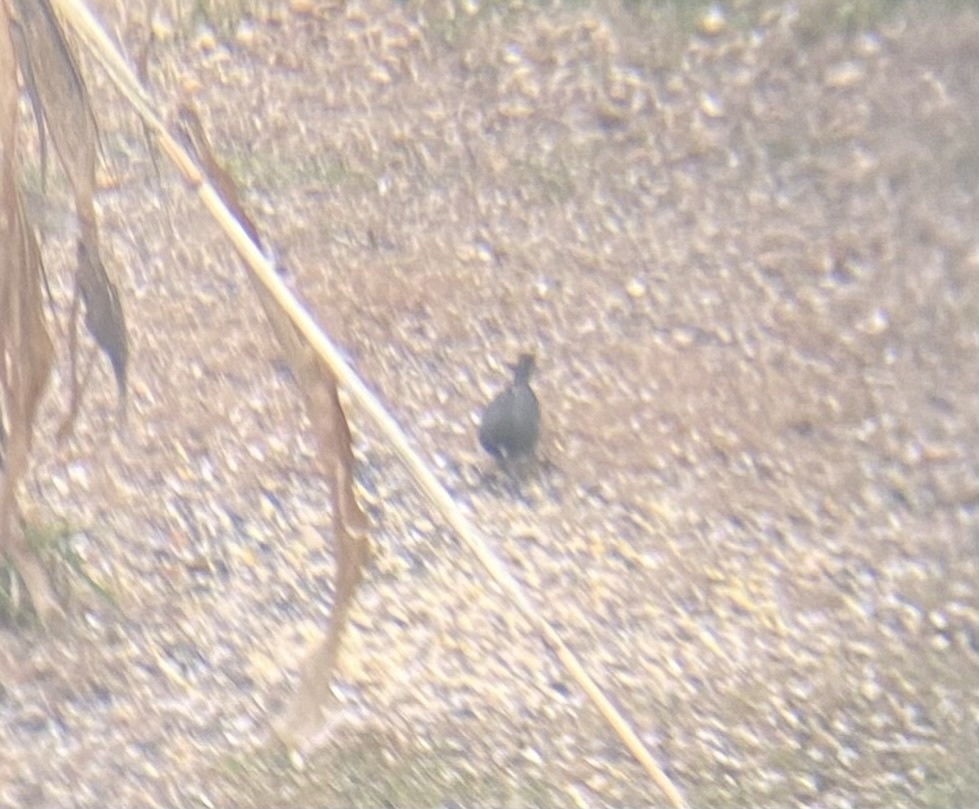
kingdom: Animalia
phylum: Chordata
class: Aves
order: Passeriformes
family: Passerellidae
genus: Junco
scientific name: Junco hyemalis
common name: Dark-eyed junco
